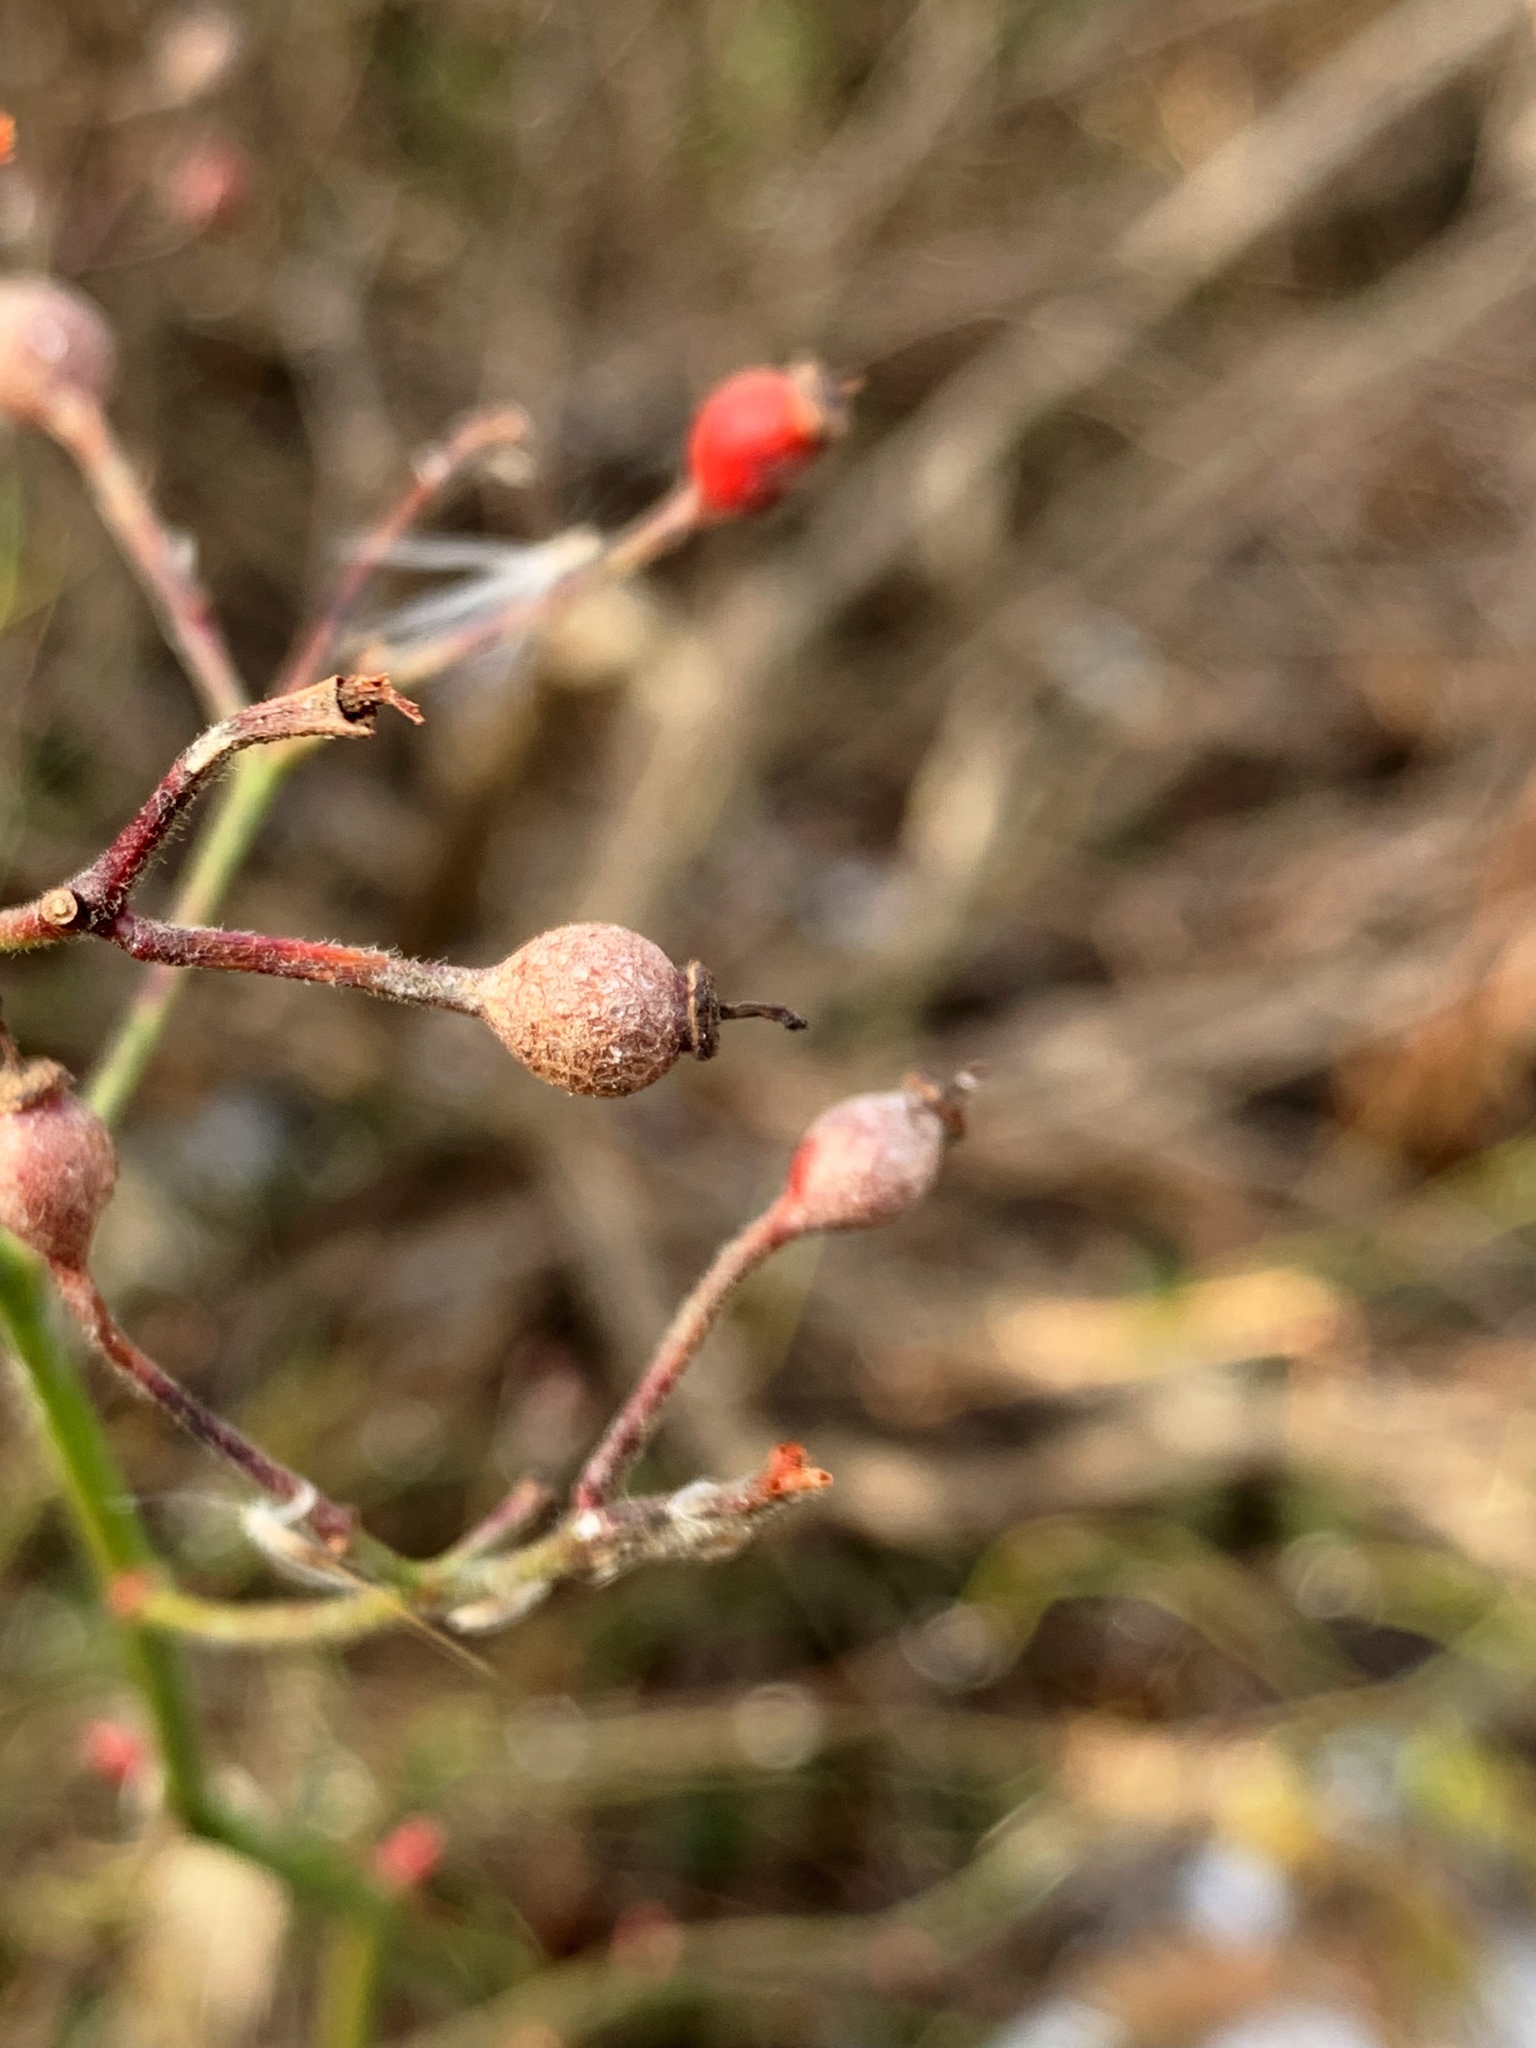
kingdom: Plantae
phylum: Tracheophyta
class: Magnoliopsida
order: Rosales
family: Rosaceae
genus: Rosa
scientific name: Rosa multiflora
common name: Multiflora rose
